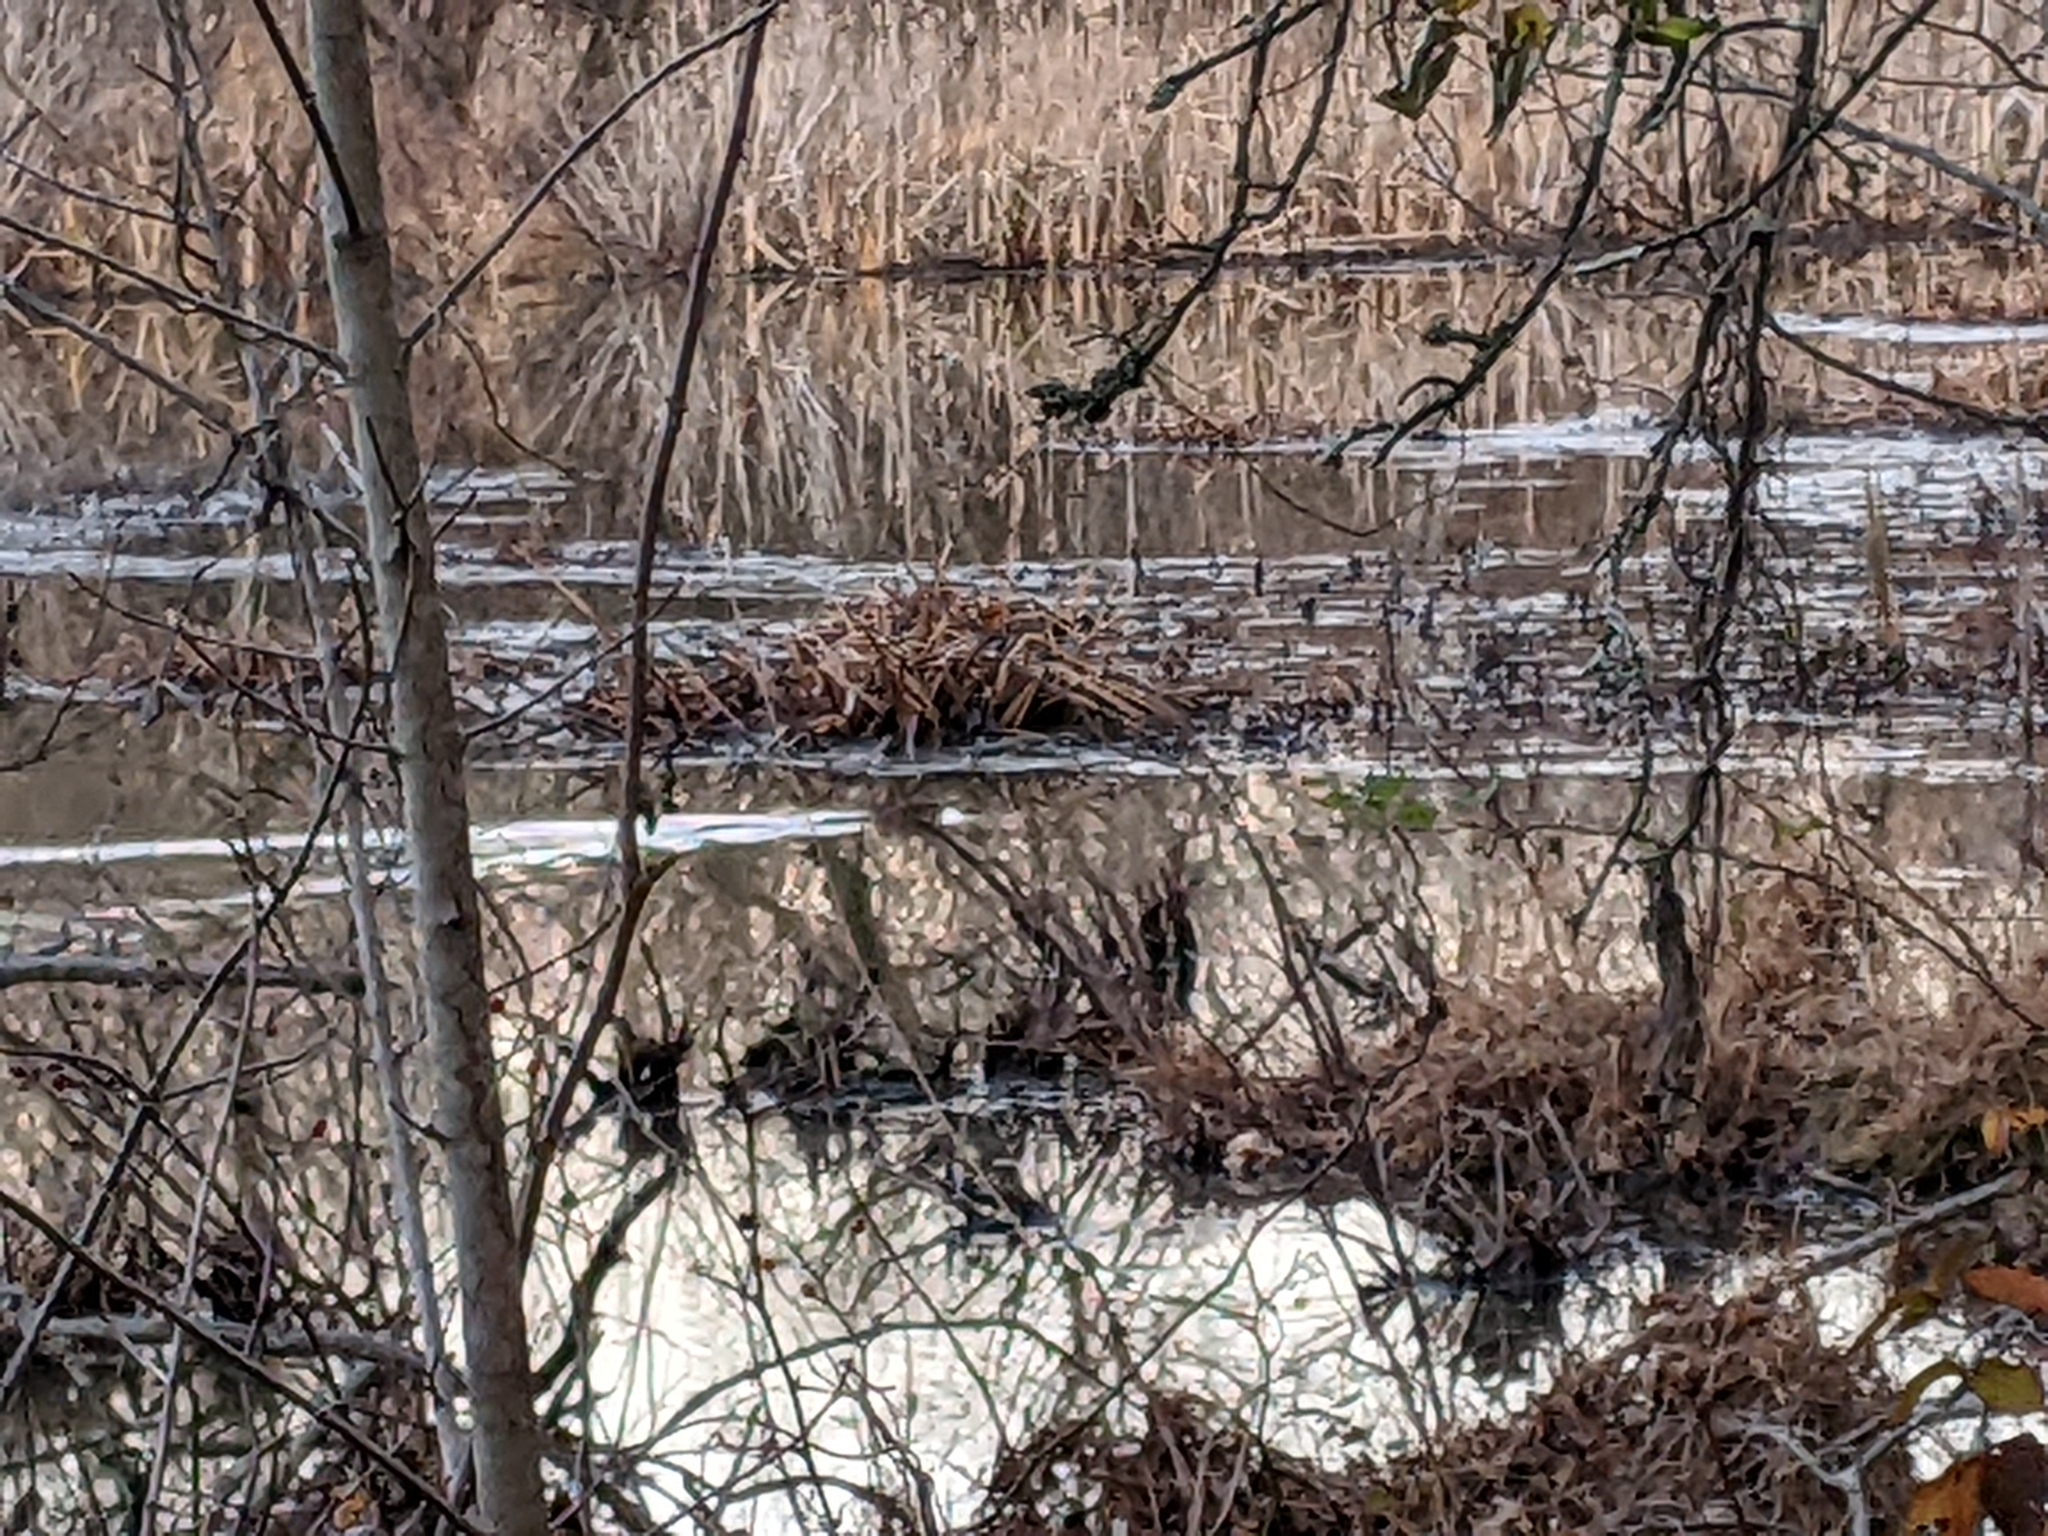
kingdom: Animalia
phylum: Chordata
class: Mammalia
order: Rodentia
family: Castoridae
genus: Castor
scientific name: Castor canadensis
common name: American beaver
